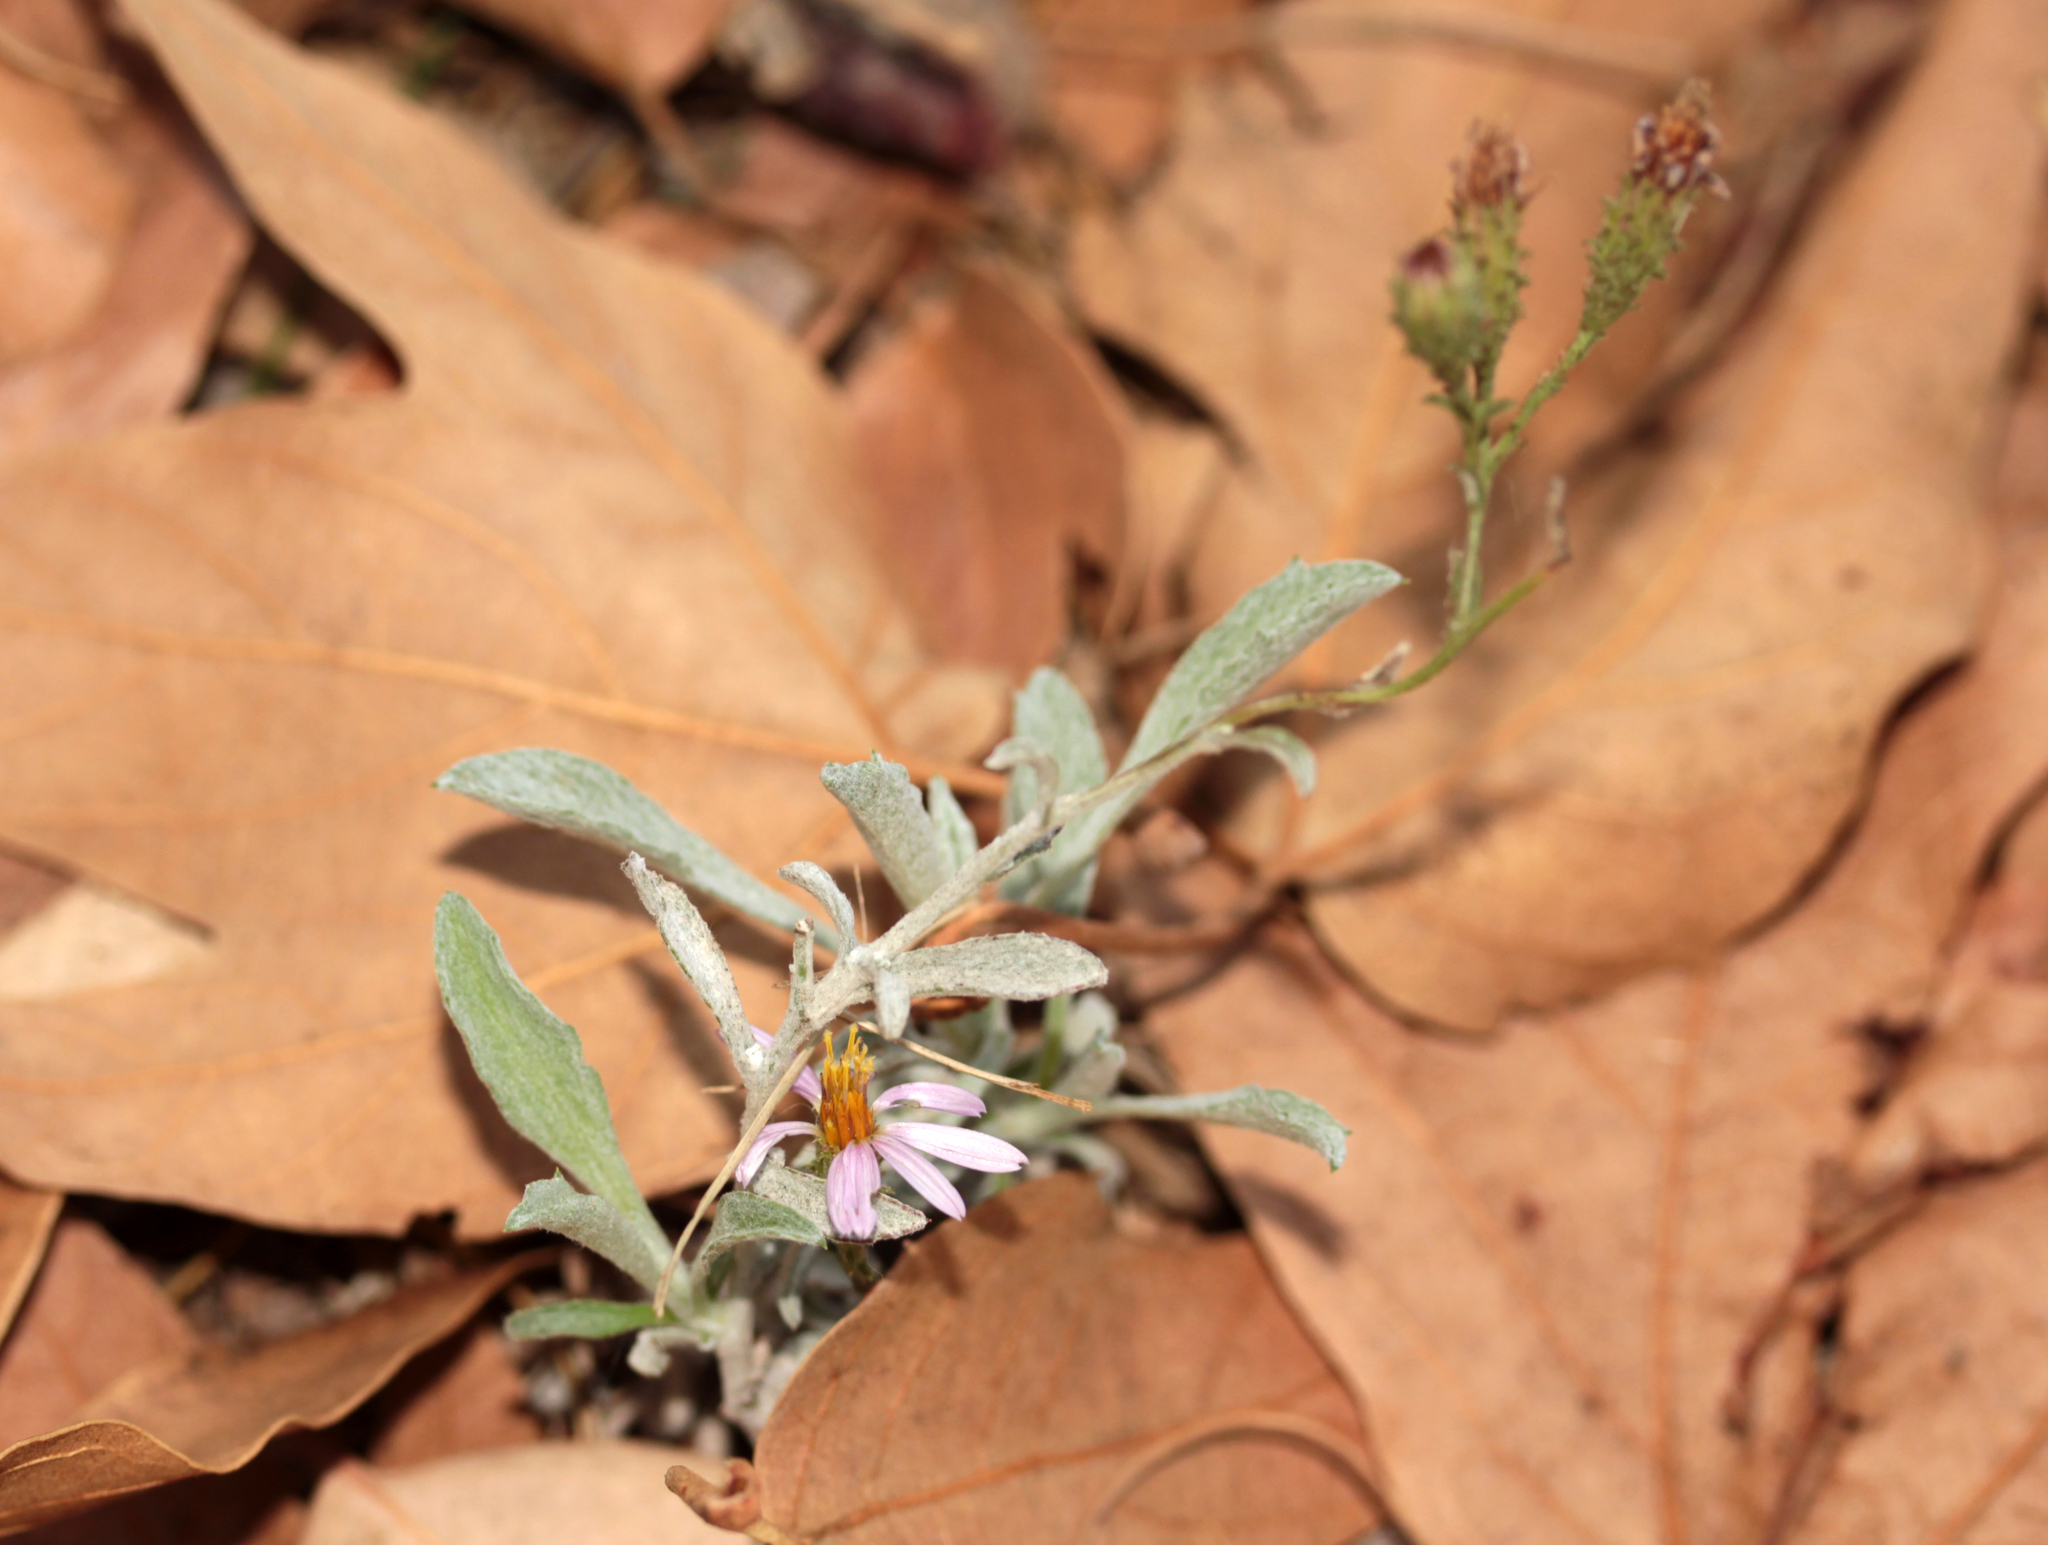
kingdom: Plantae
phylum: Tracheophyta
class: Magnoliopsida
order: Asterales
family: Asteraceae
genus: Corethrogyne
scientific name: Corethrogyne filaginifolia
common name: Sand-aster
